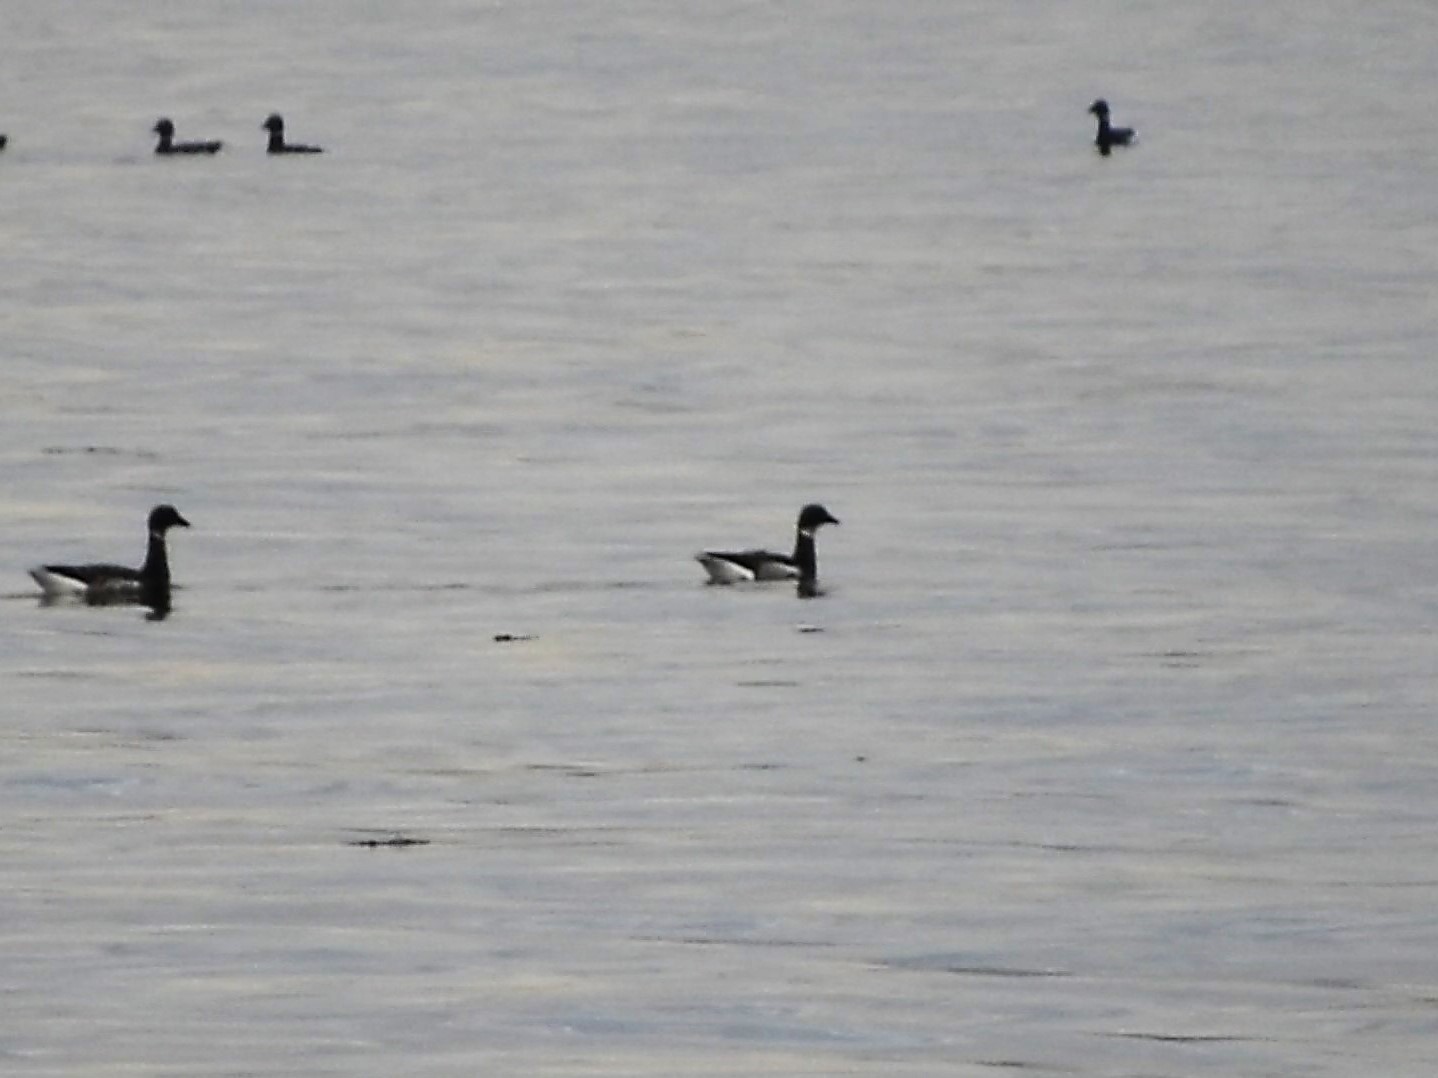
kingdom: Animalia
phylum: Chordata
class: Aves
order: Anseriformes
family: Anatidae
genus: Branta
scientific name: Branta bernicla
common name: Brant goose
